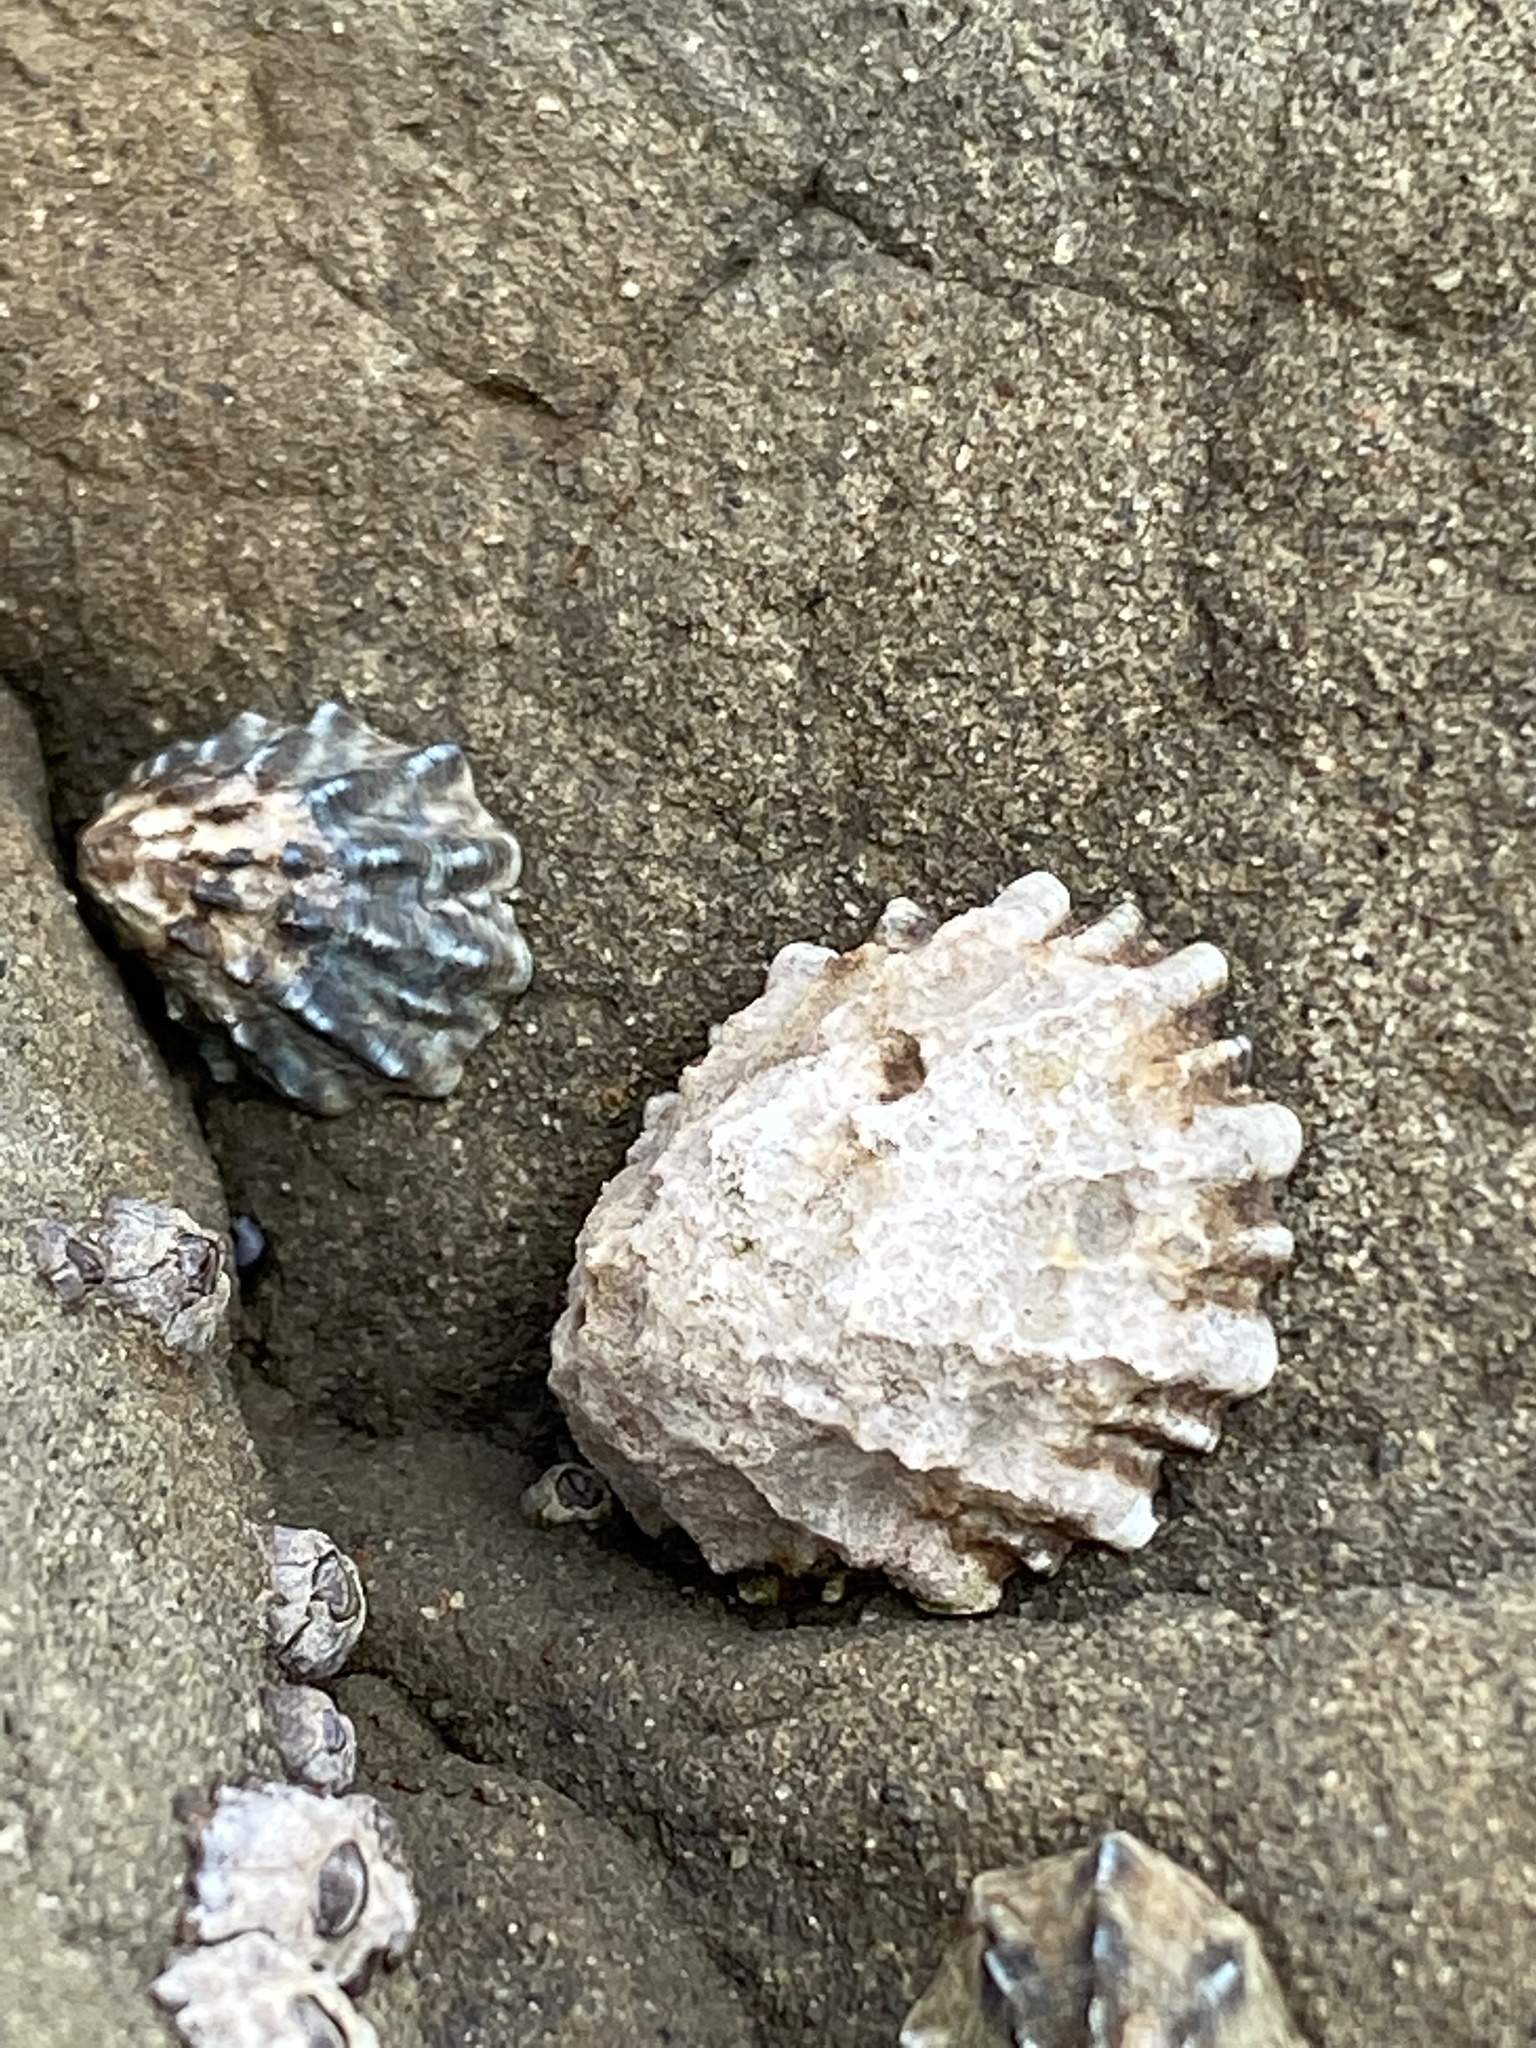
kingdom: Animalia
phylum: Mollusca
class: Gastropoda
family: Lottiidae
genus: Lottia
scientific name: Lottia scabra
